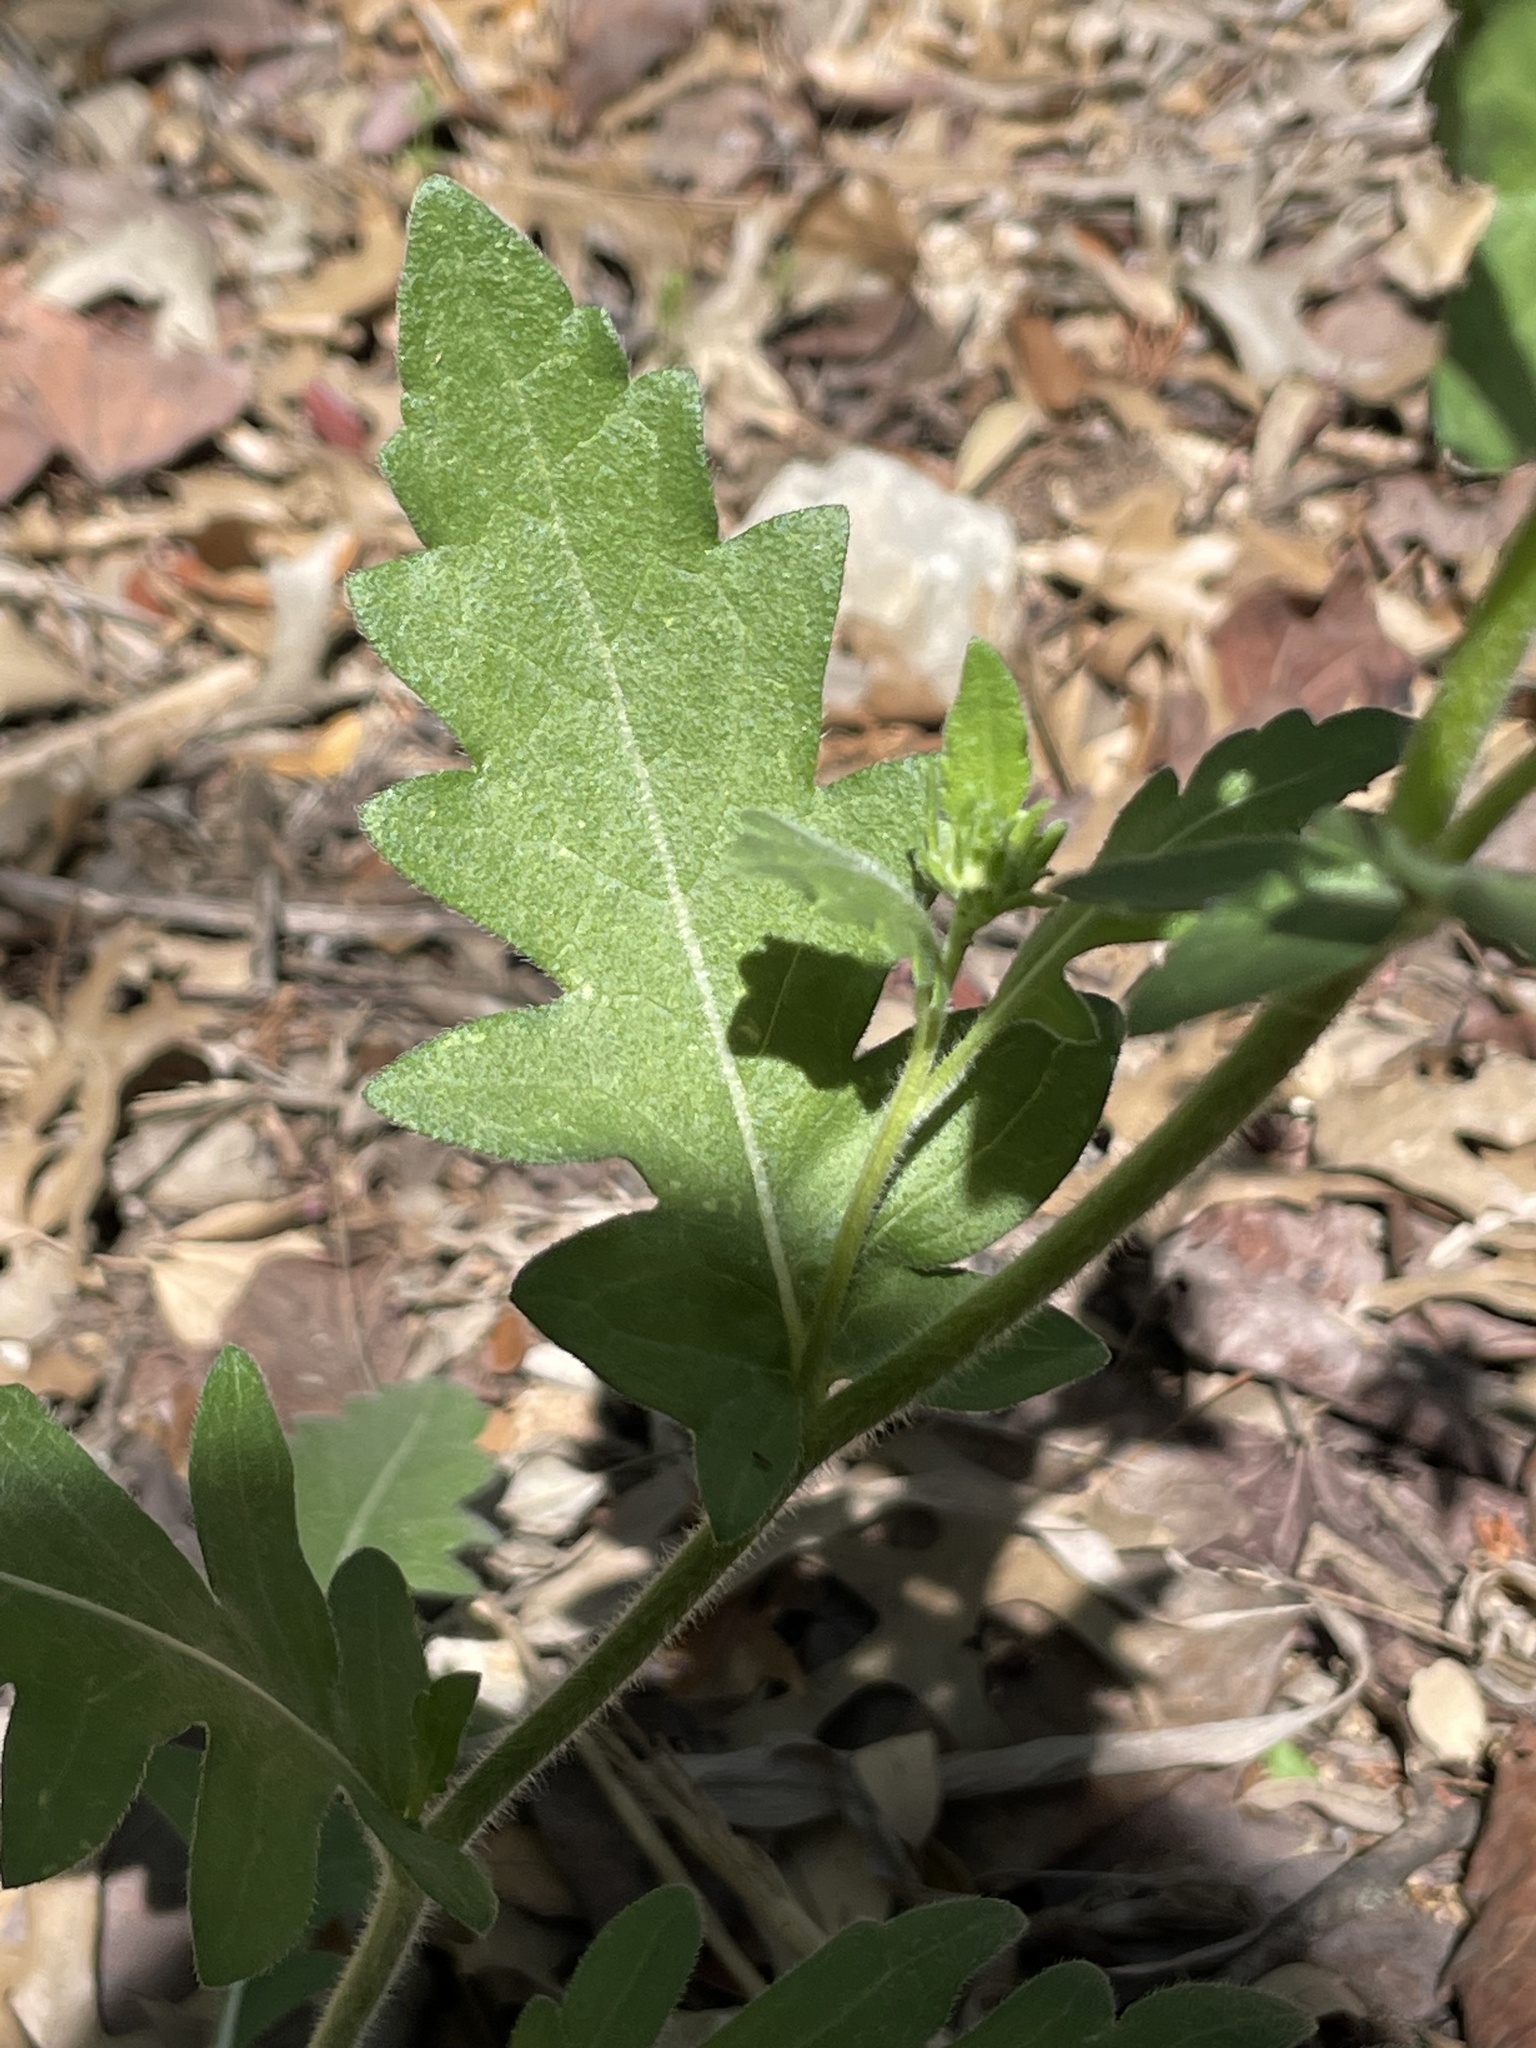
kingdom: Plantae
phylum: Tracheophyta
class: Magnoliopsida
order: Asterales
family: Asteraceae
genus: Engelmannia
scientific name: Engelmannia peristenia
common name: Engelmann's daisy
